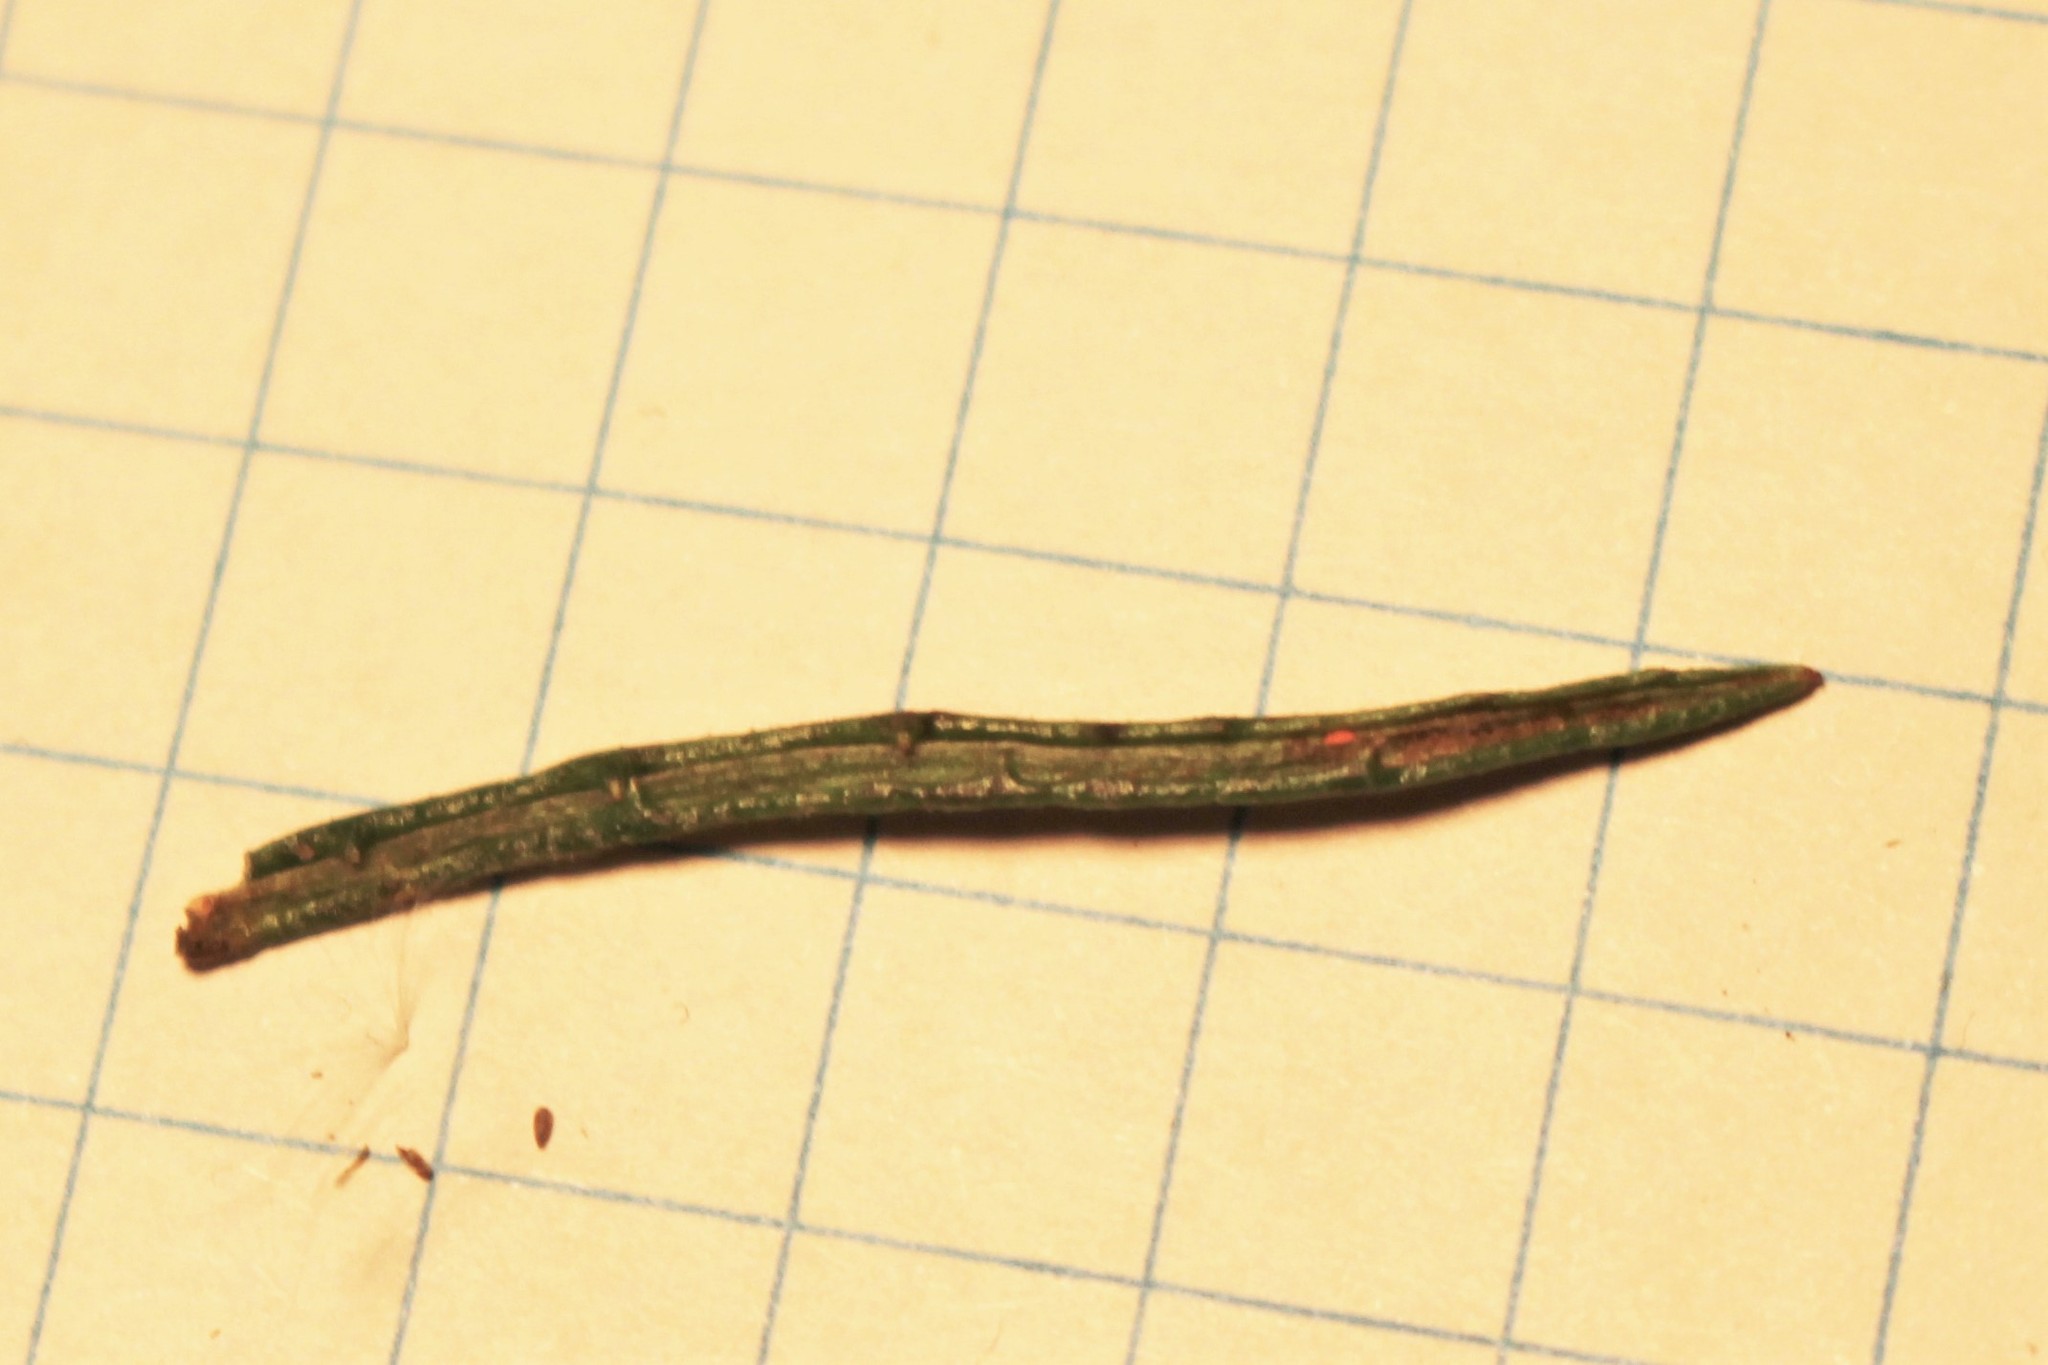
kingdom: Plantae
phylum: Tracheophyta
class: Magnoliopsida
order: Asterales
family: Asteraceae
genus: Senecio
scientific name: Senecio hispidulus
